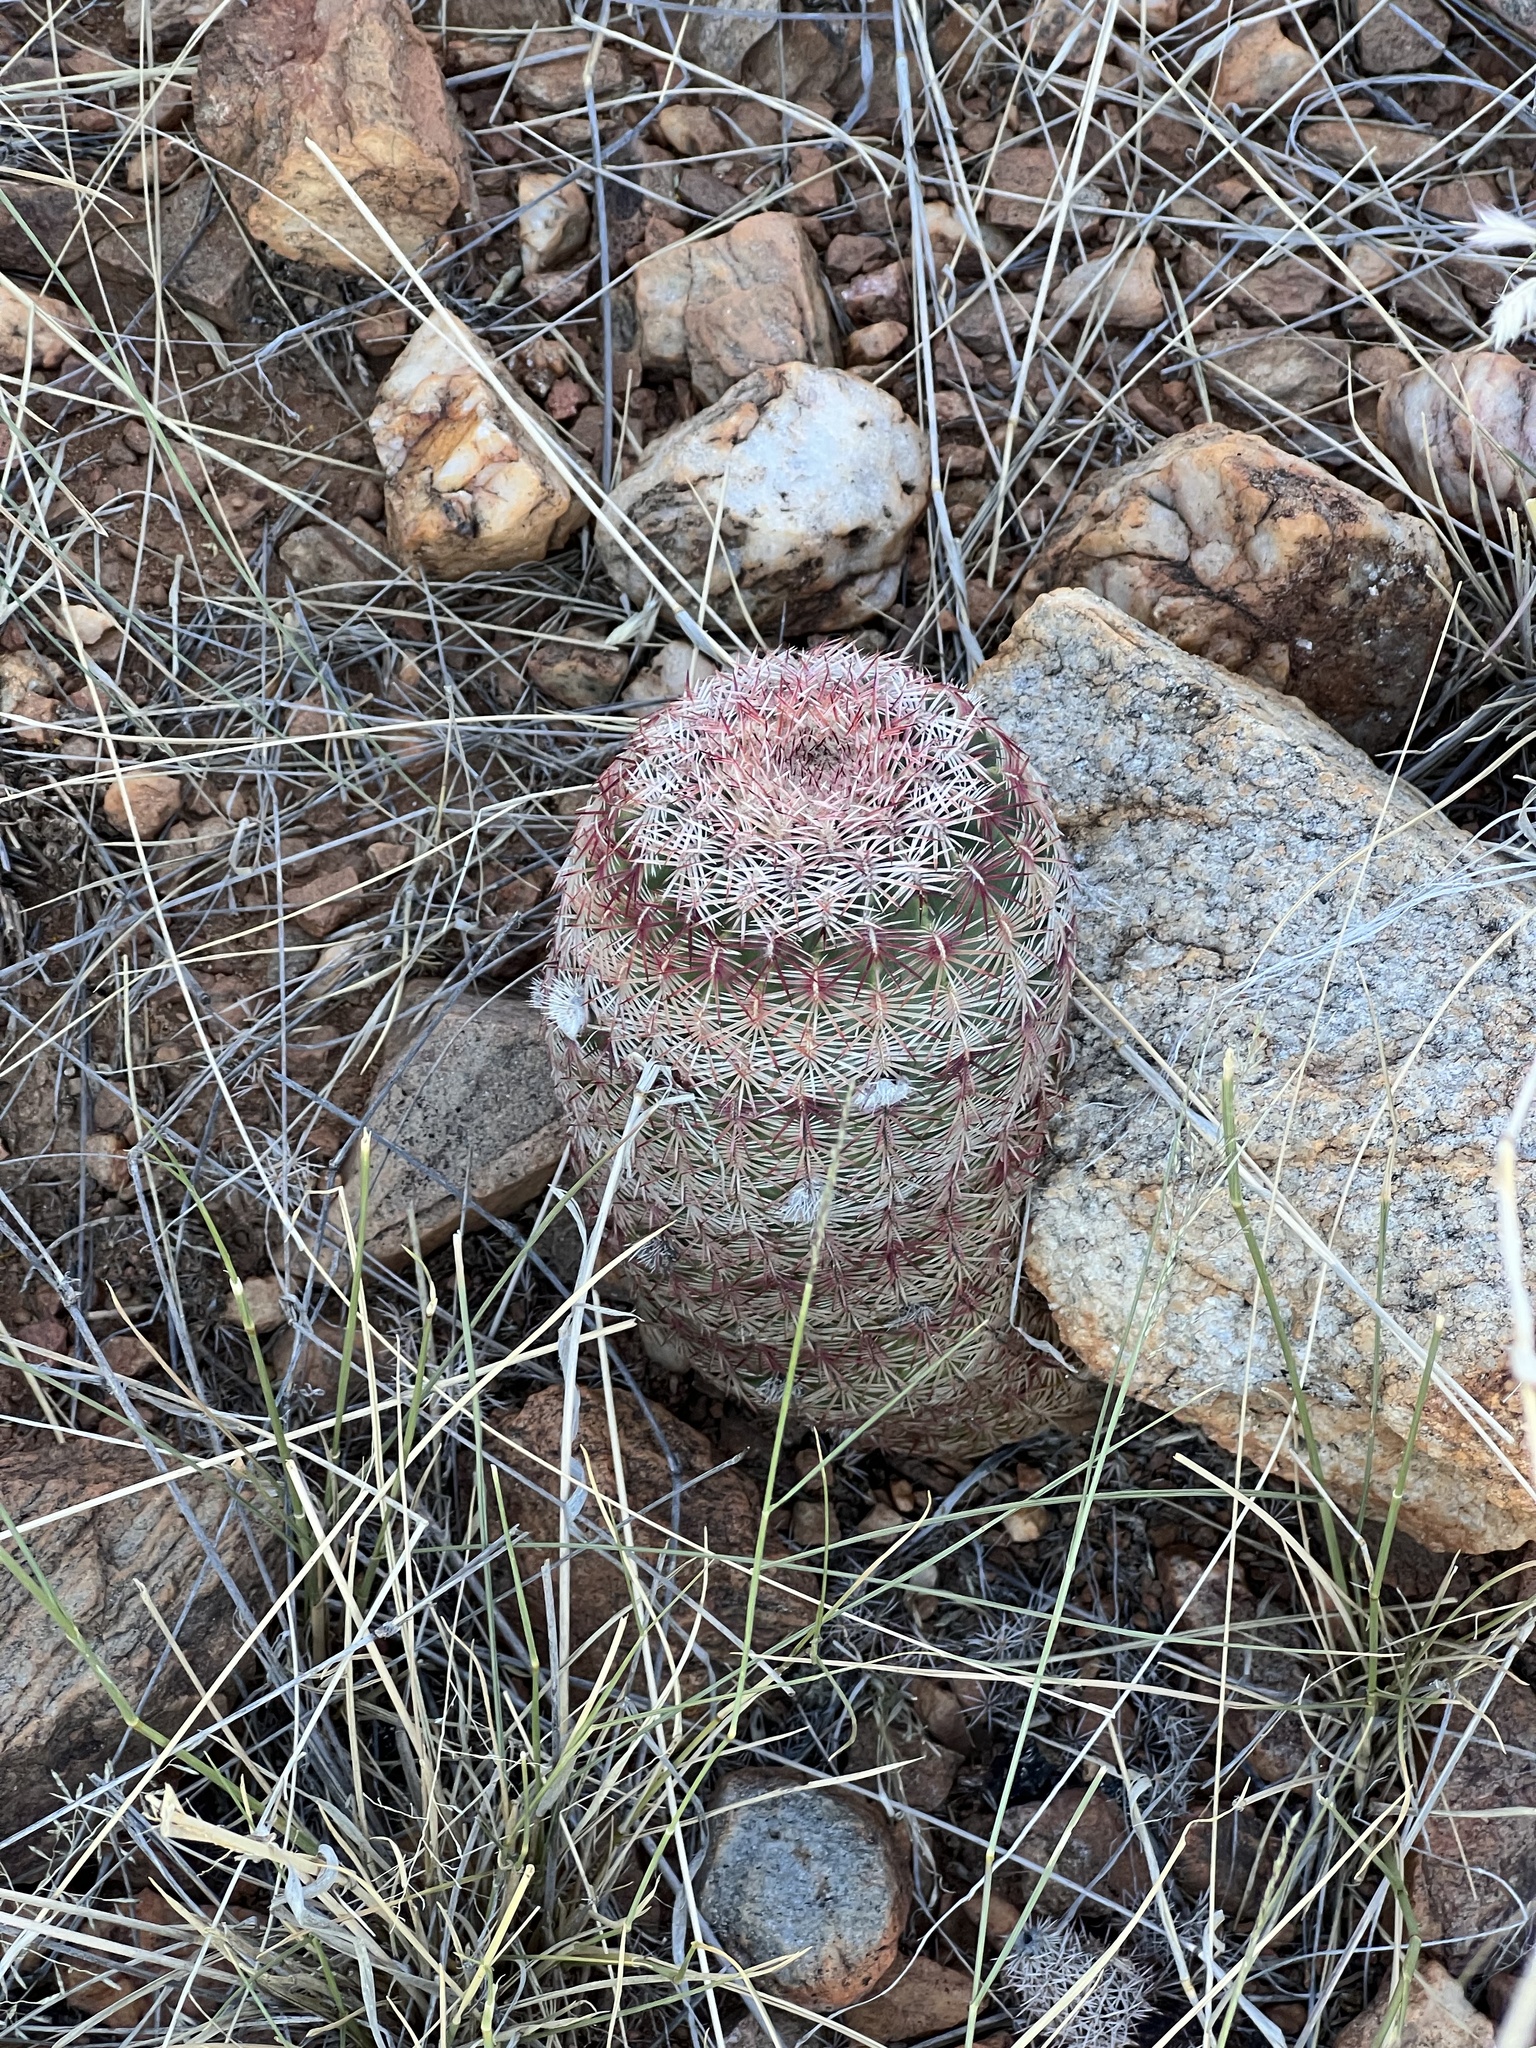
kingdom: Plantae
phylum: Tracheophyta
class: Magnoliopsida
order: Caryophyllales
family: Cactaceae
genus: Echinocereus
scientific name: Echinocereus rigidissimus
